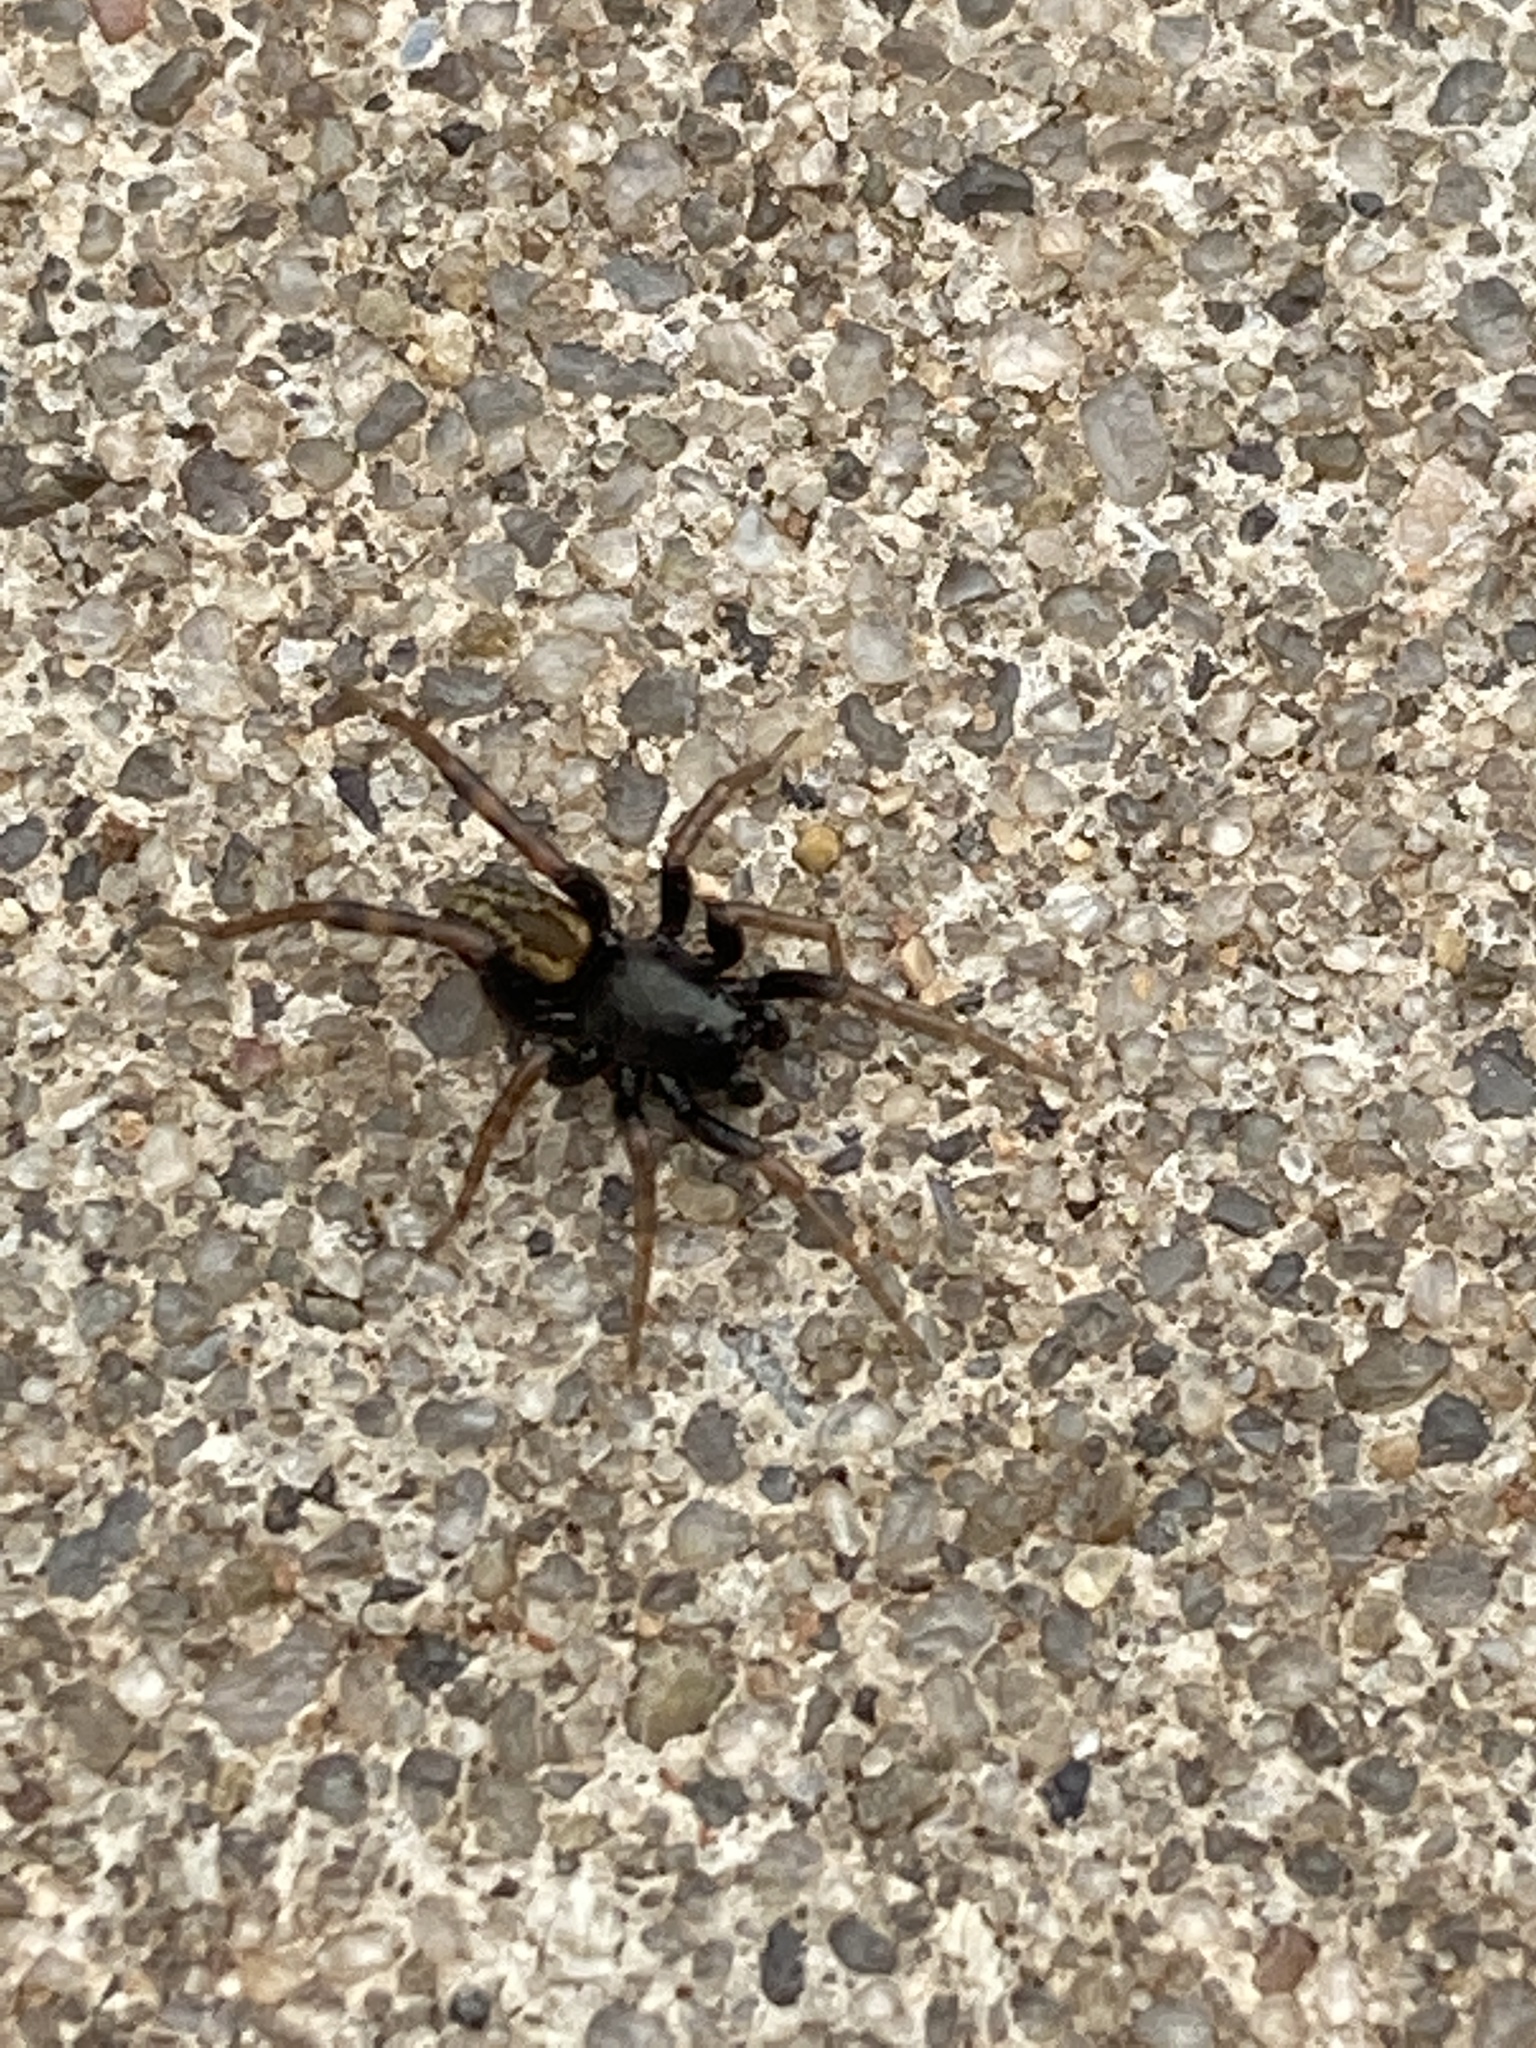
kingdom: Animalia
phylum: Arthropoda
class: Arachnida
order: Araneae
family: Lycosidae
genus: Allocosa
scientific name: Allocosa funerea
